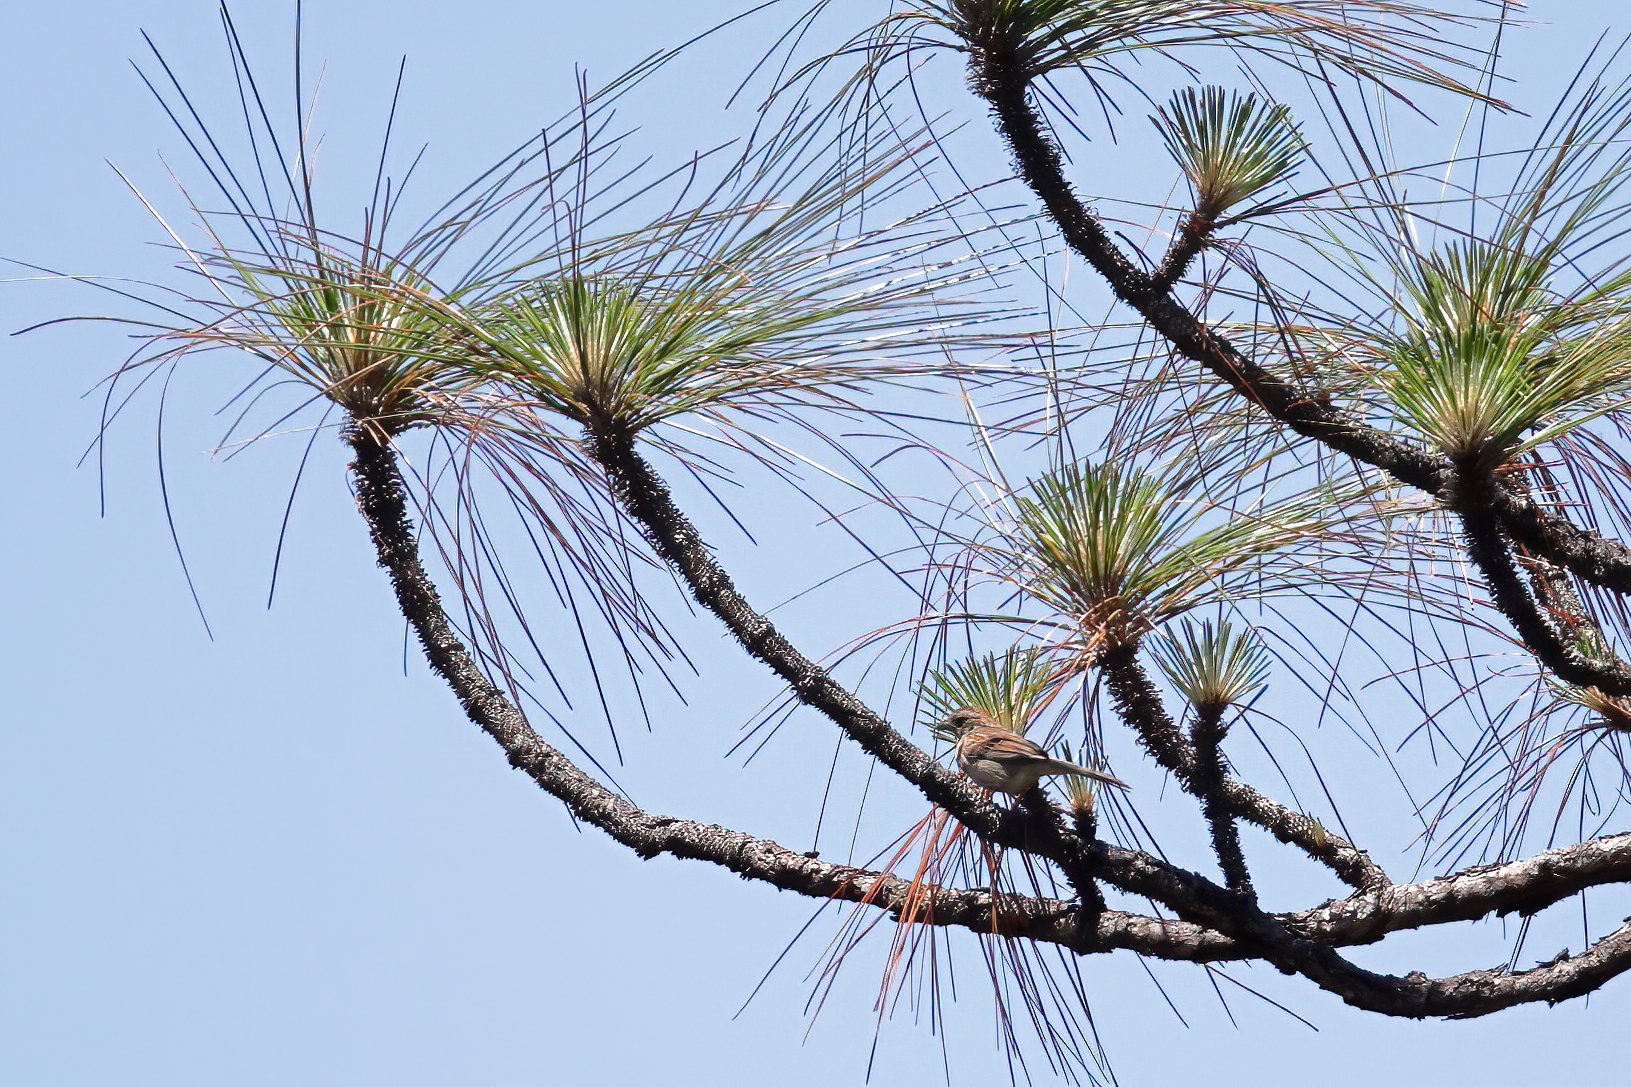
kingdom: Animalia
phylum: Chordata
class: Aves
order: Passeriformes
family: Passerellidae
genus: Peucaea
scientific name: Peucaea aestivalis
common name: Bachman's sparrow
